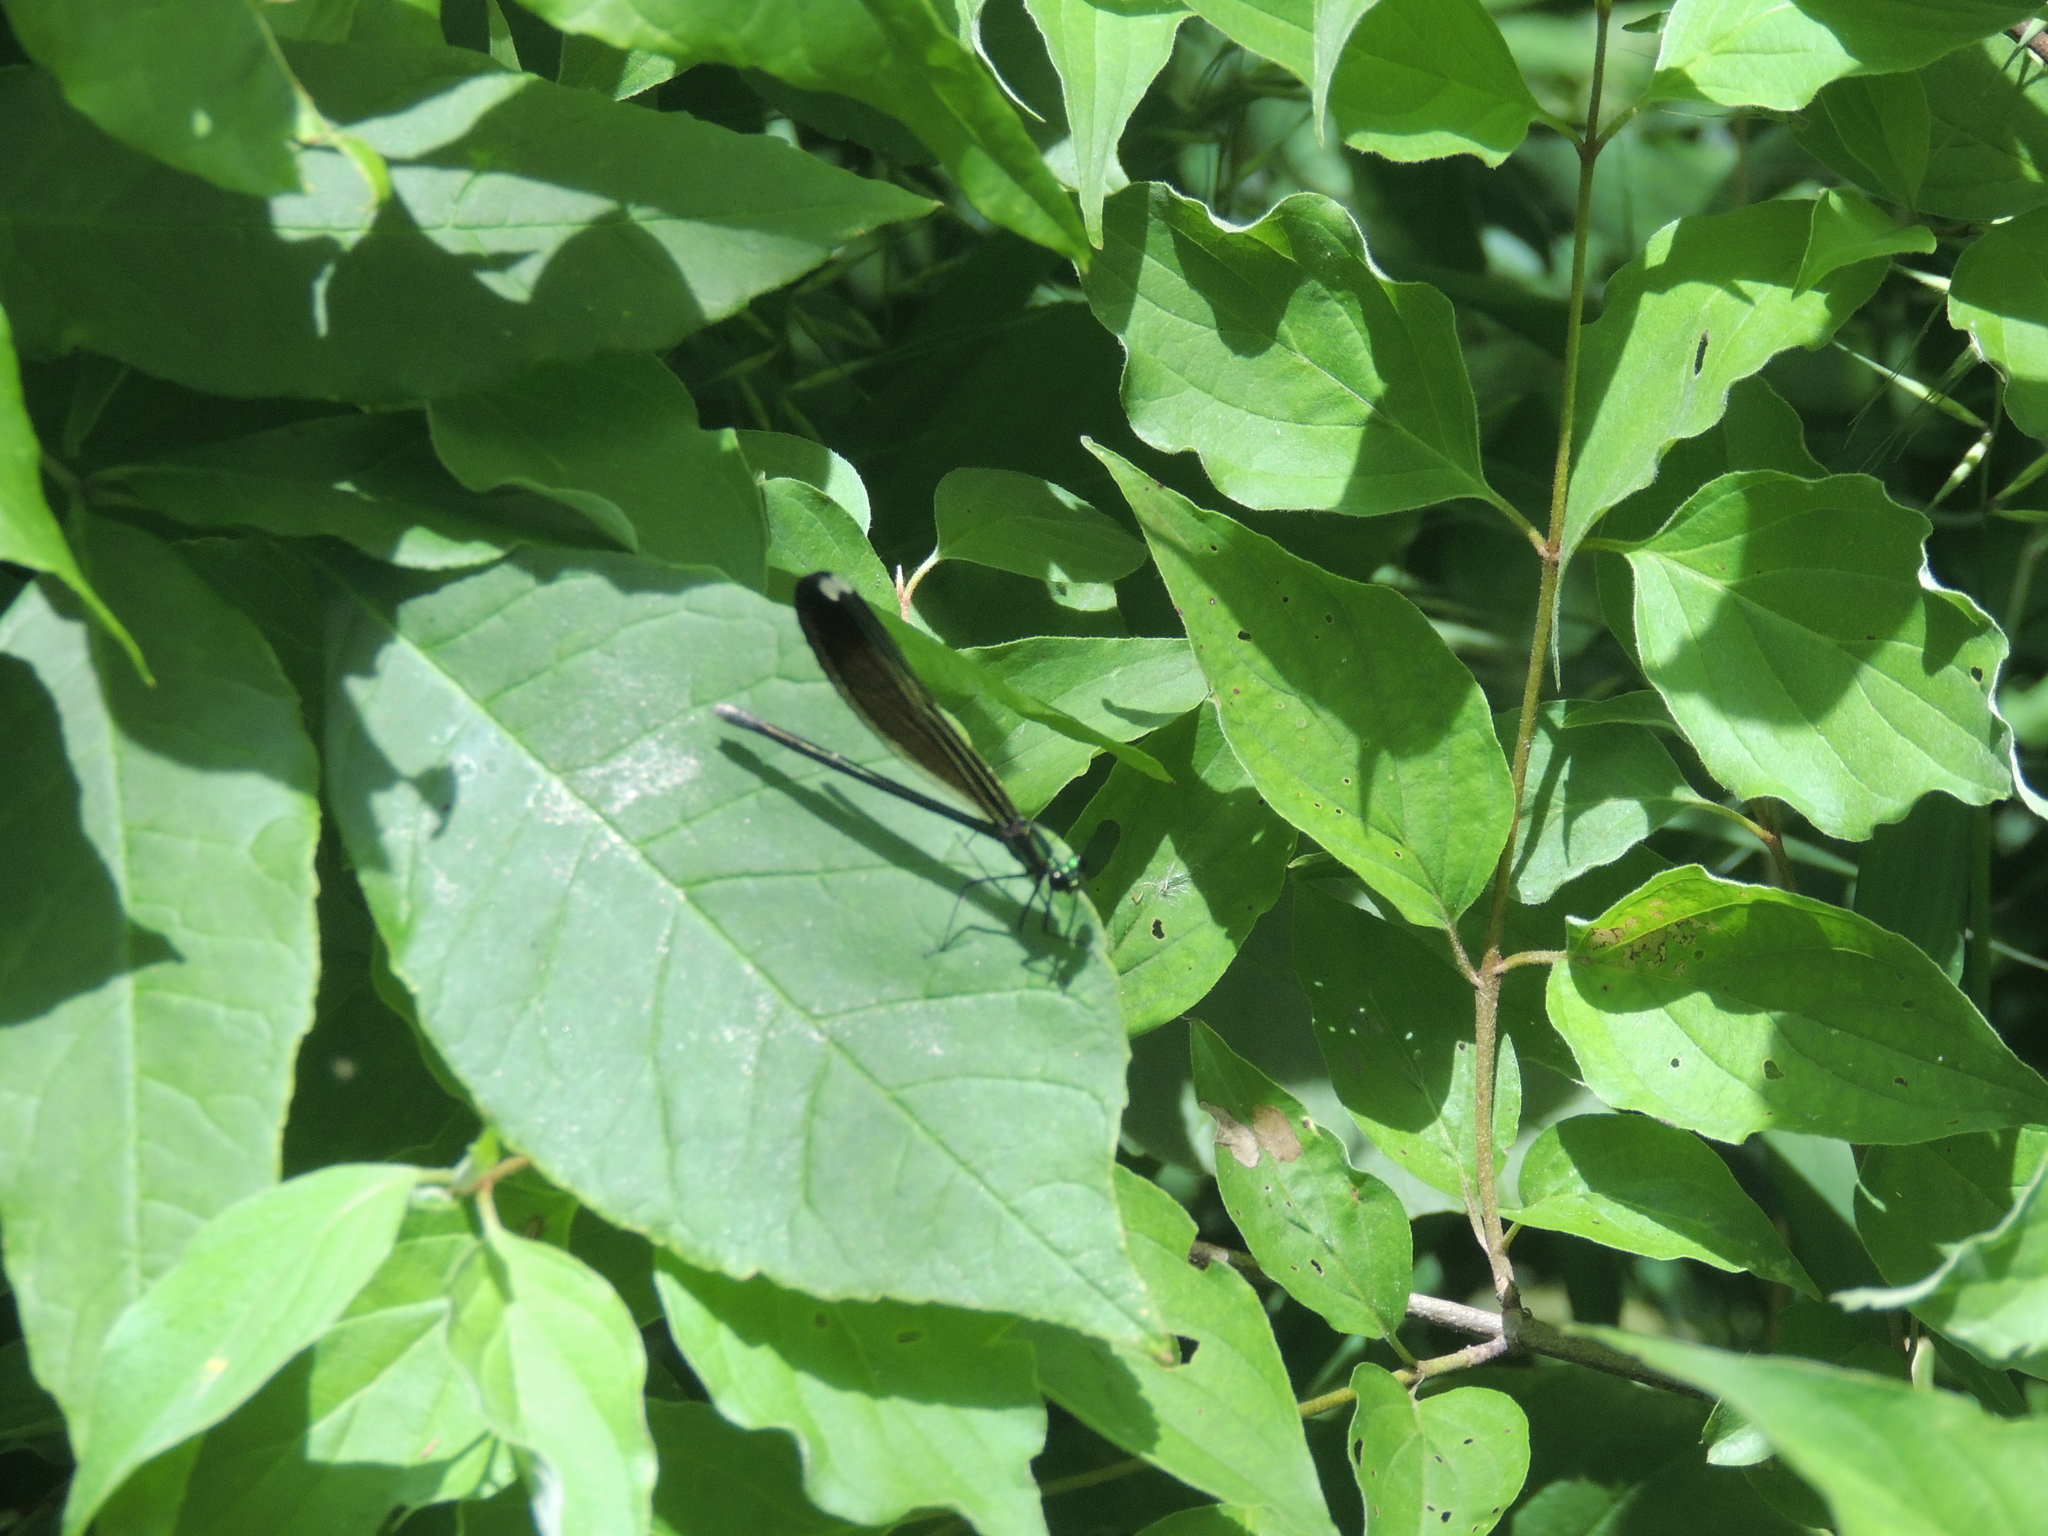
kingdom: Animalia
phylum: Arthropoda
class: Insecta
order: Odonata
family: Calopterygidae
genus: Calopteryx
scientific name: Calopteryx maculata
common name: Ebony jewelwing
